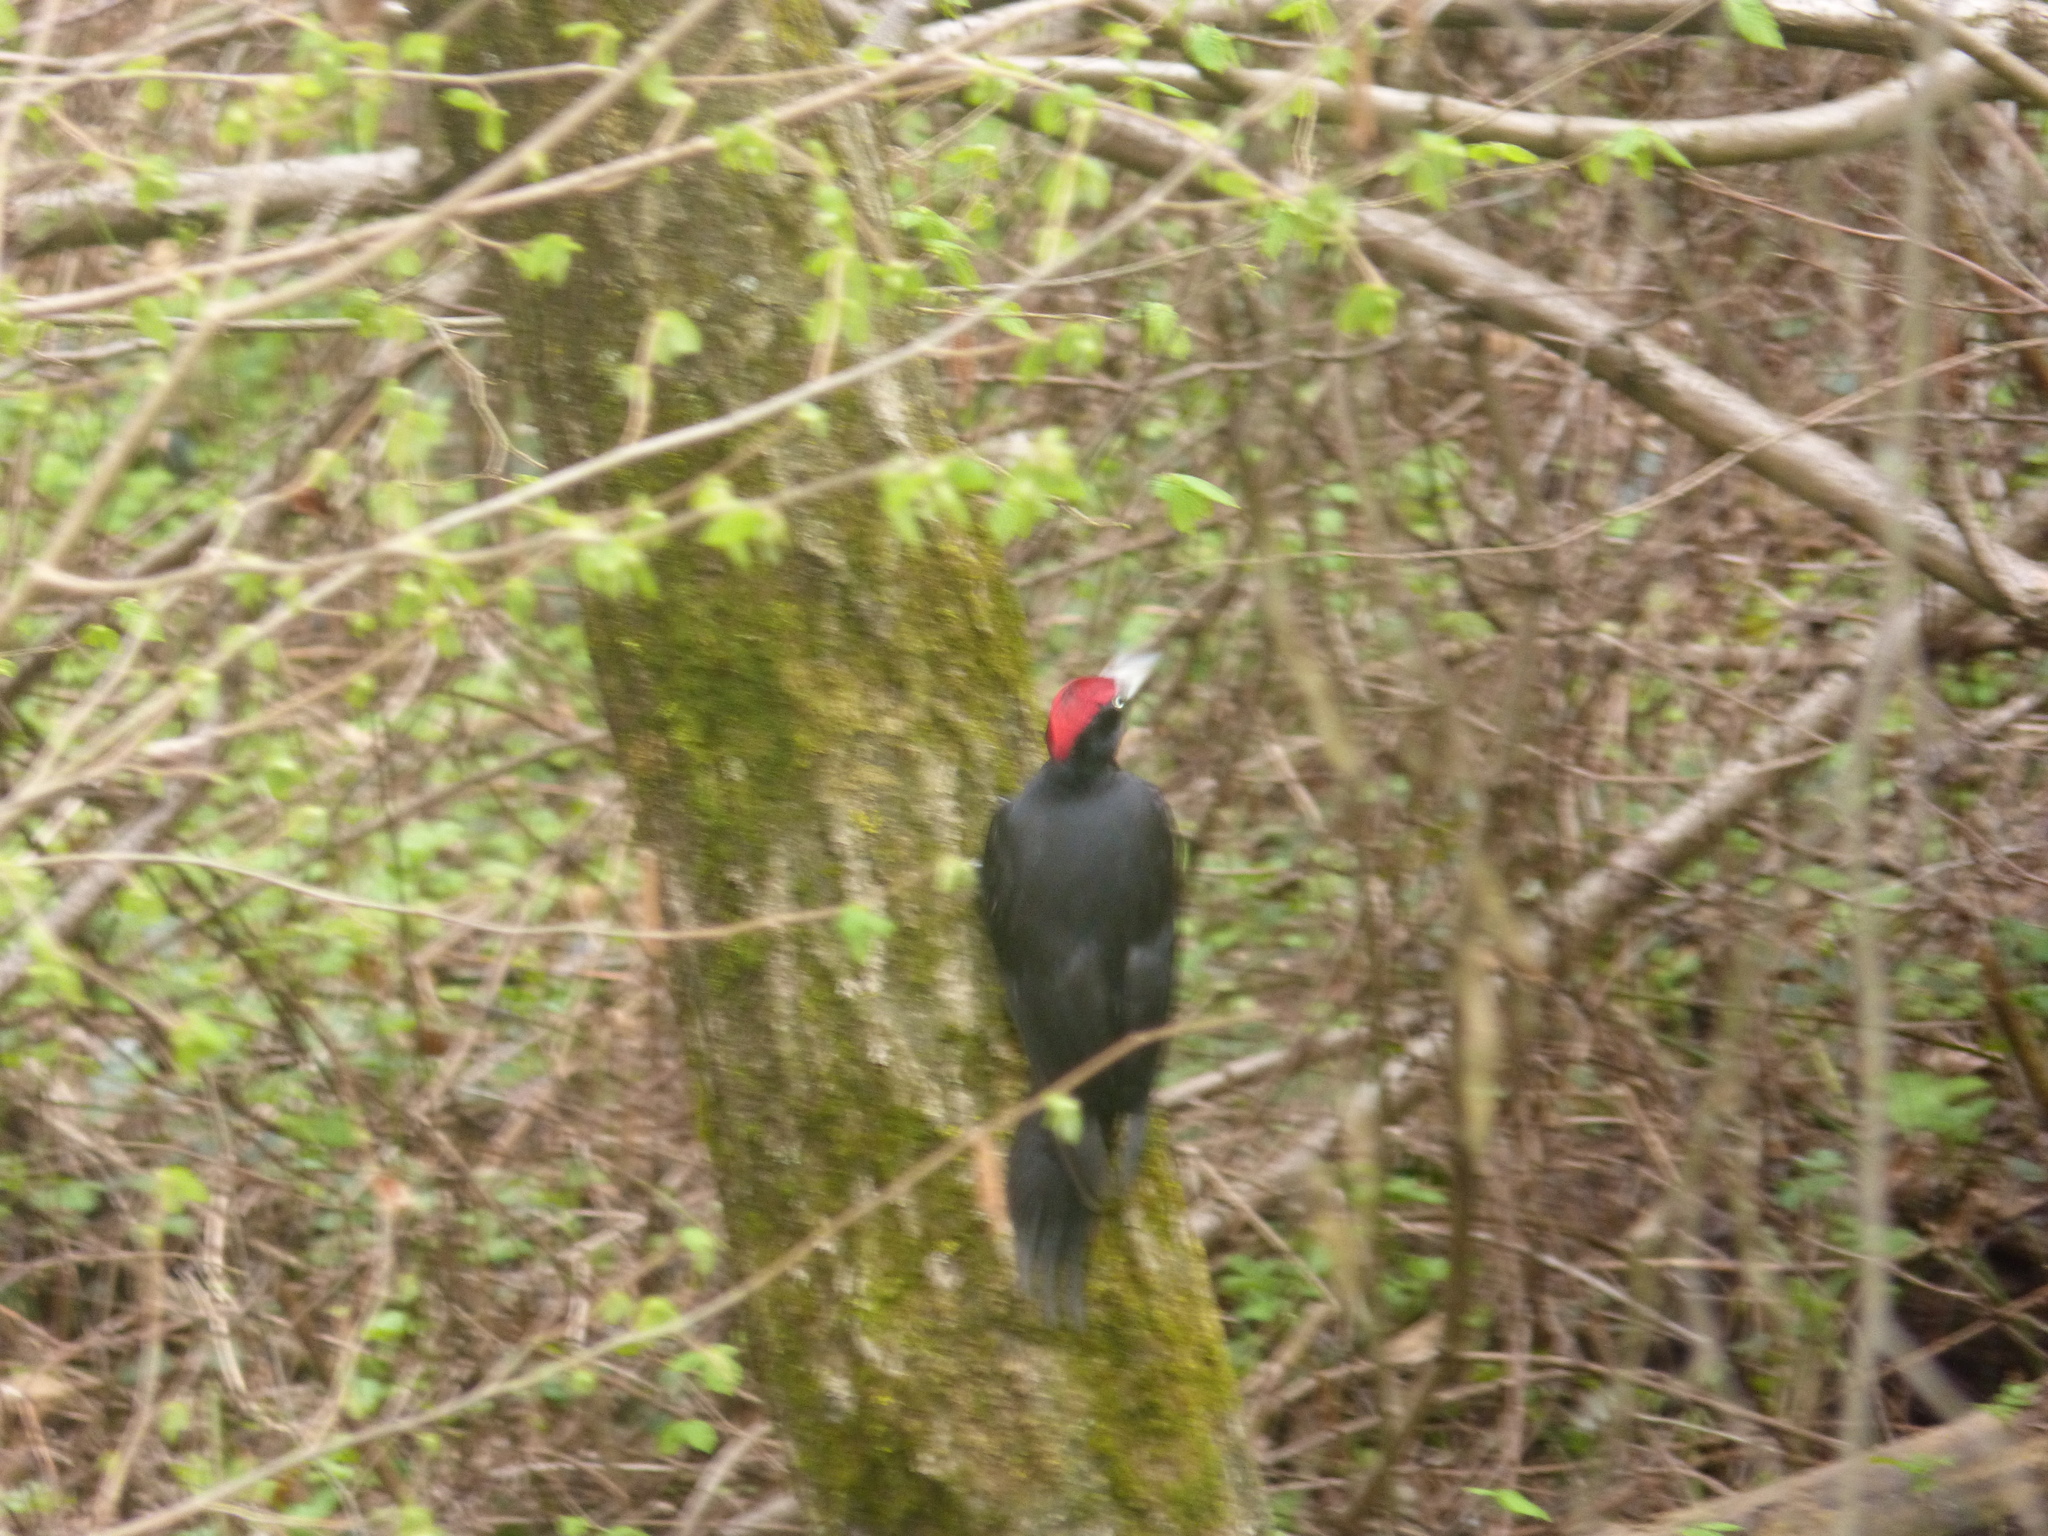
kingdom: Animalia
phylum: Chordata
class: Aves
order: Piciformes
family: Picidae
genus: Dryocopus
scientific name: Dryocopus martius
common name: Black woodpecker
